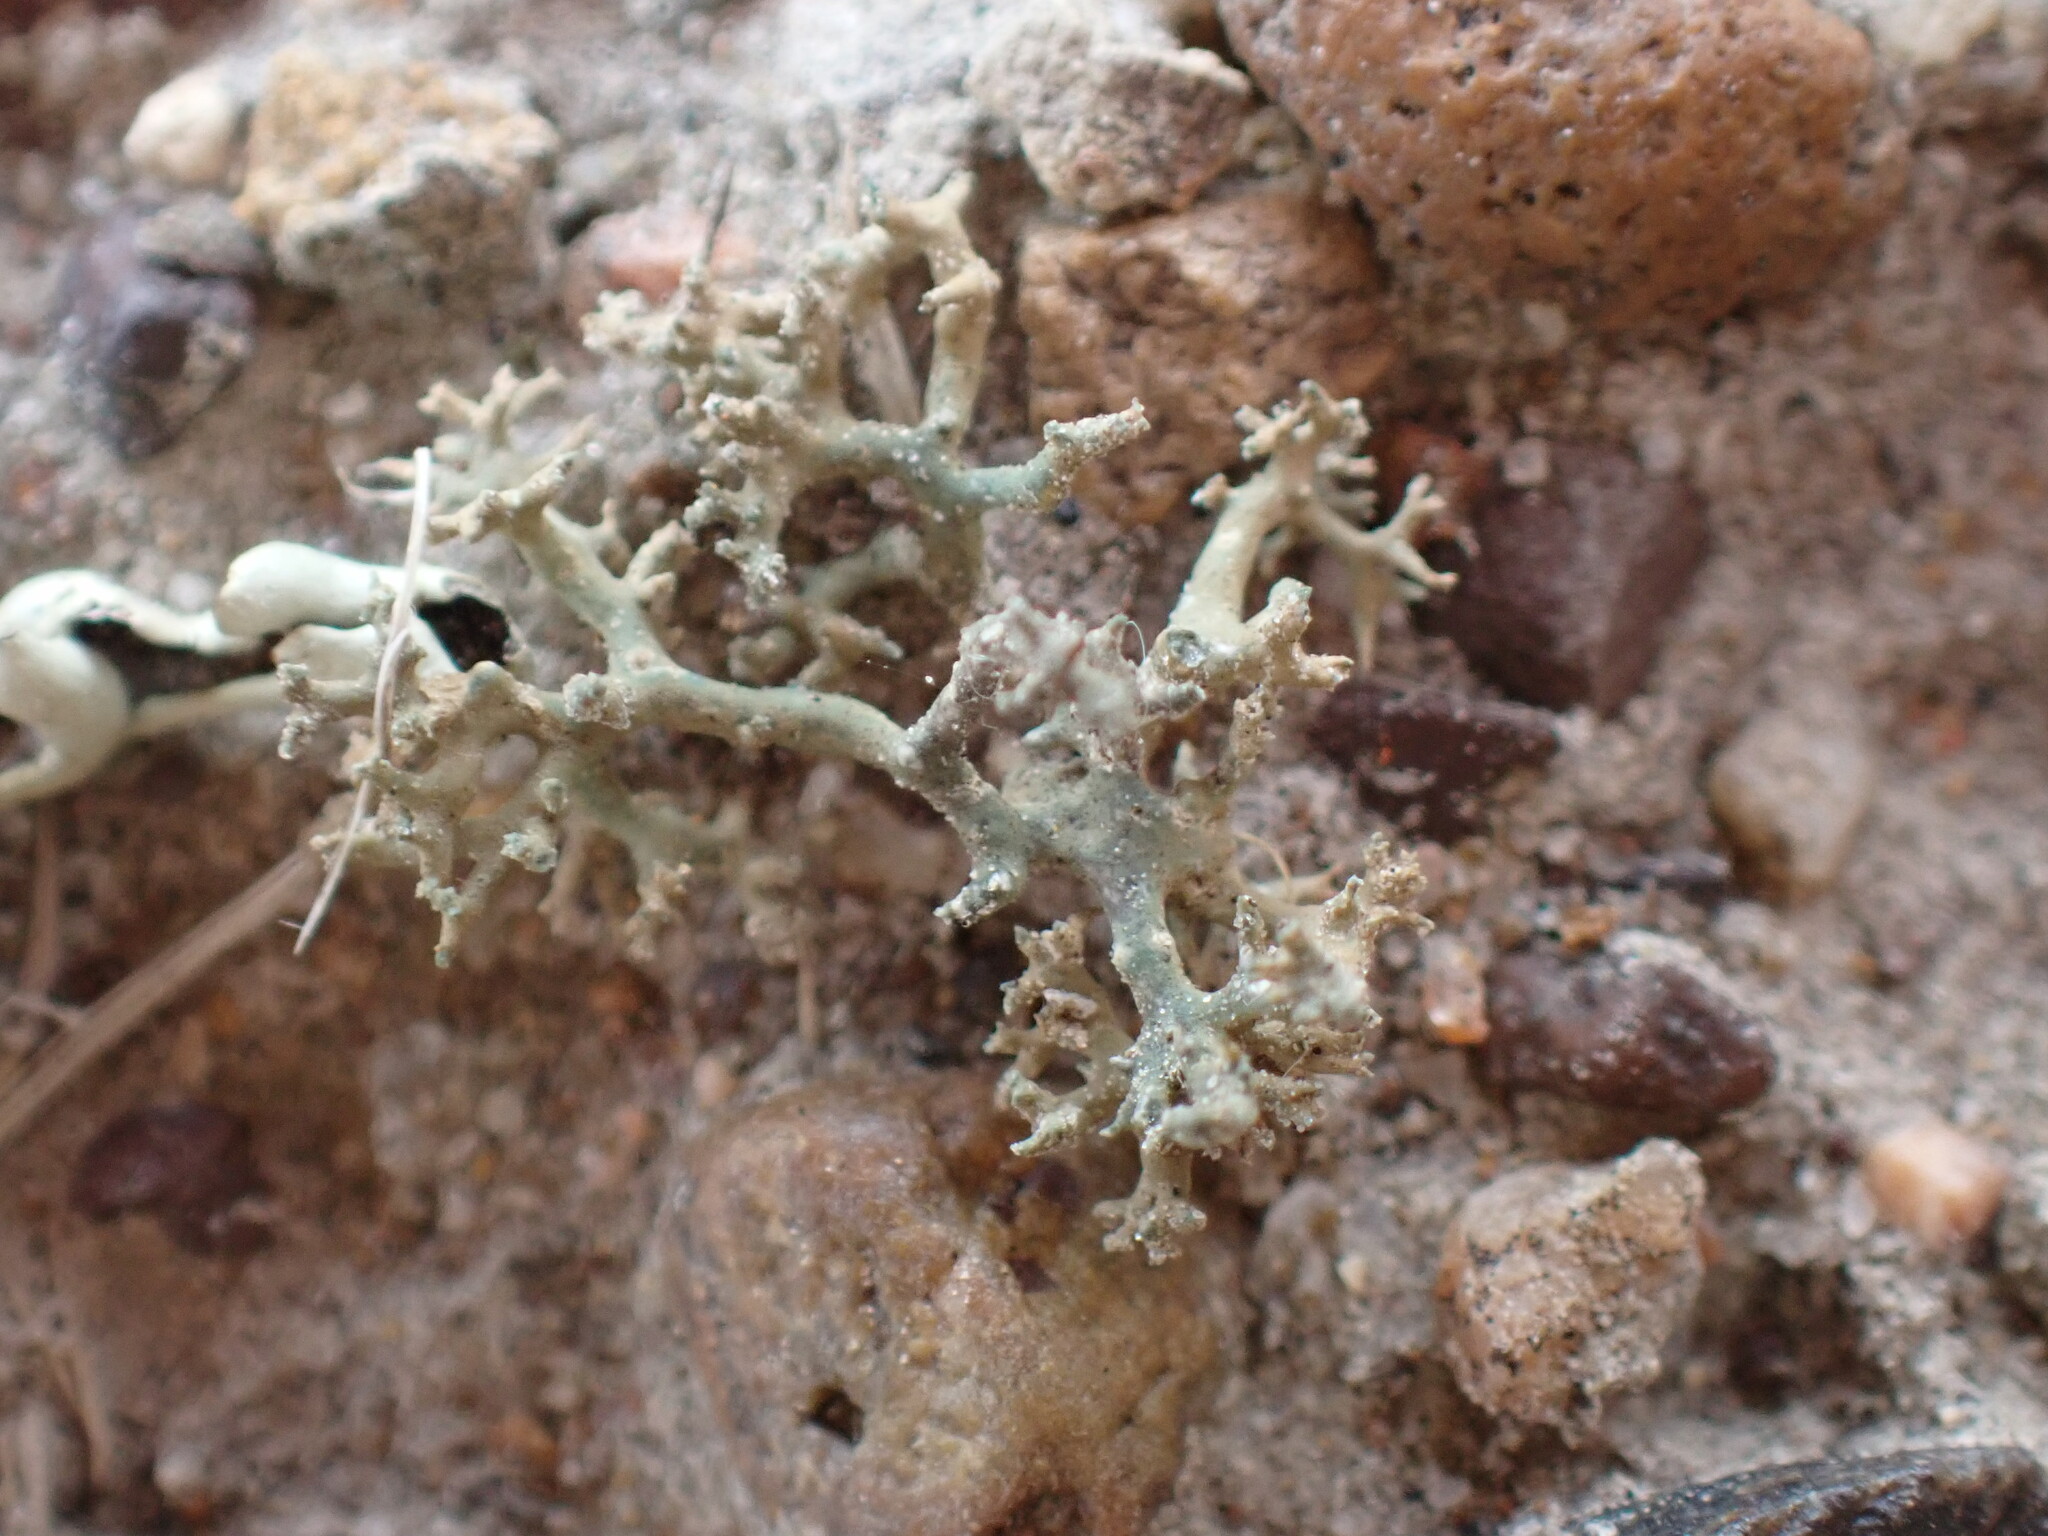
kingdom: Fungi
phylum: Ascomycota
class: Lecanoromycetes
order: Pertusariales
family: Megasporaceae
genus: Circinaria
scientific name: Circinaria hispida
